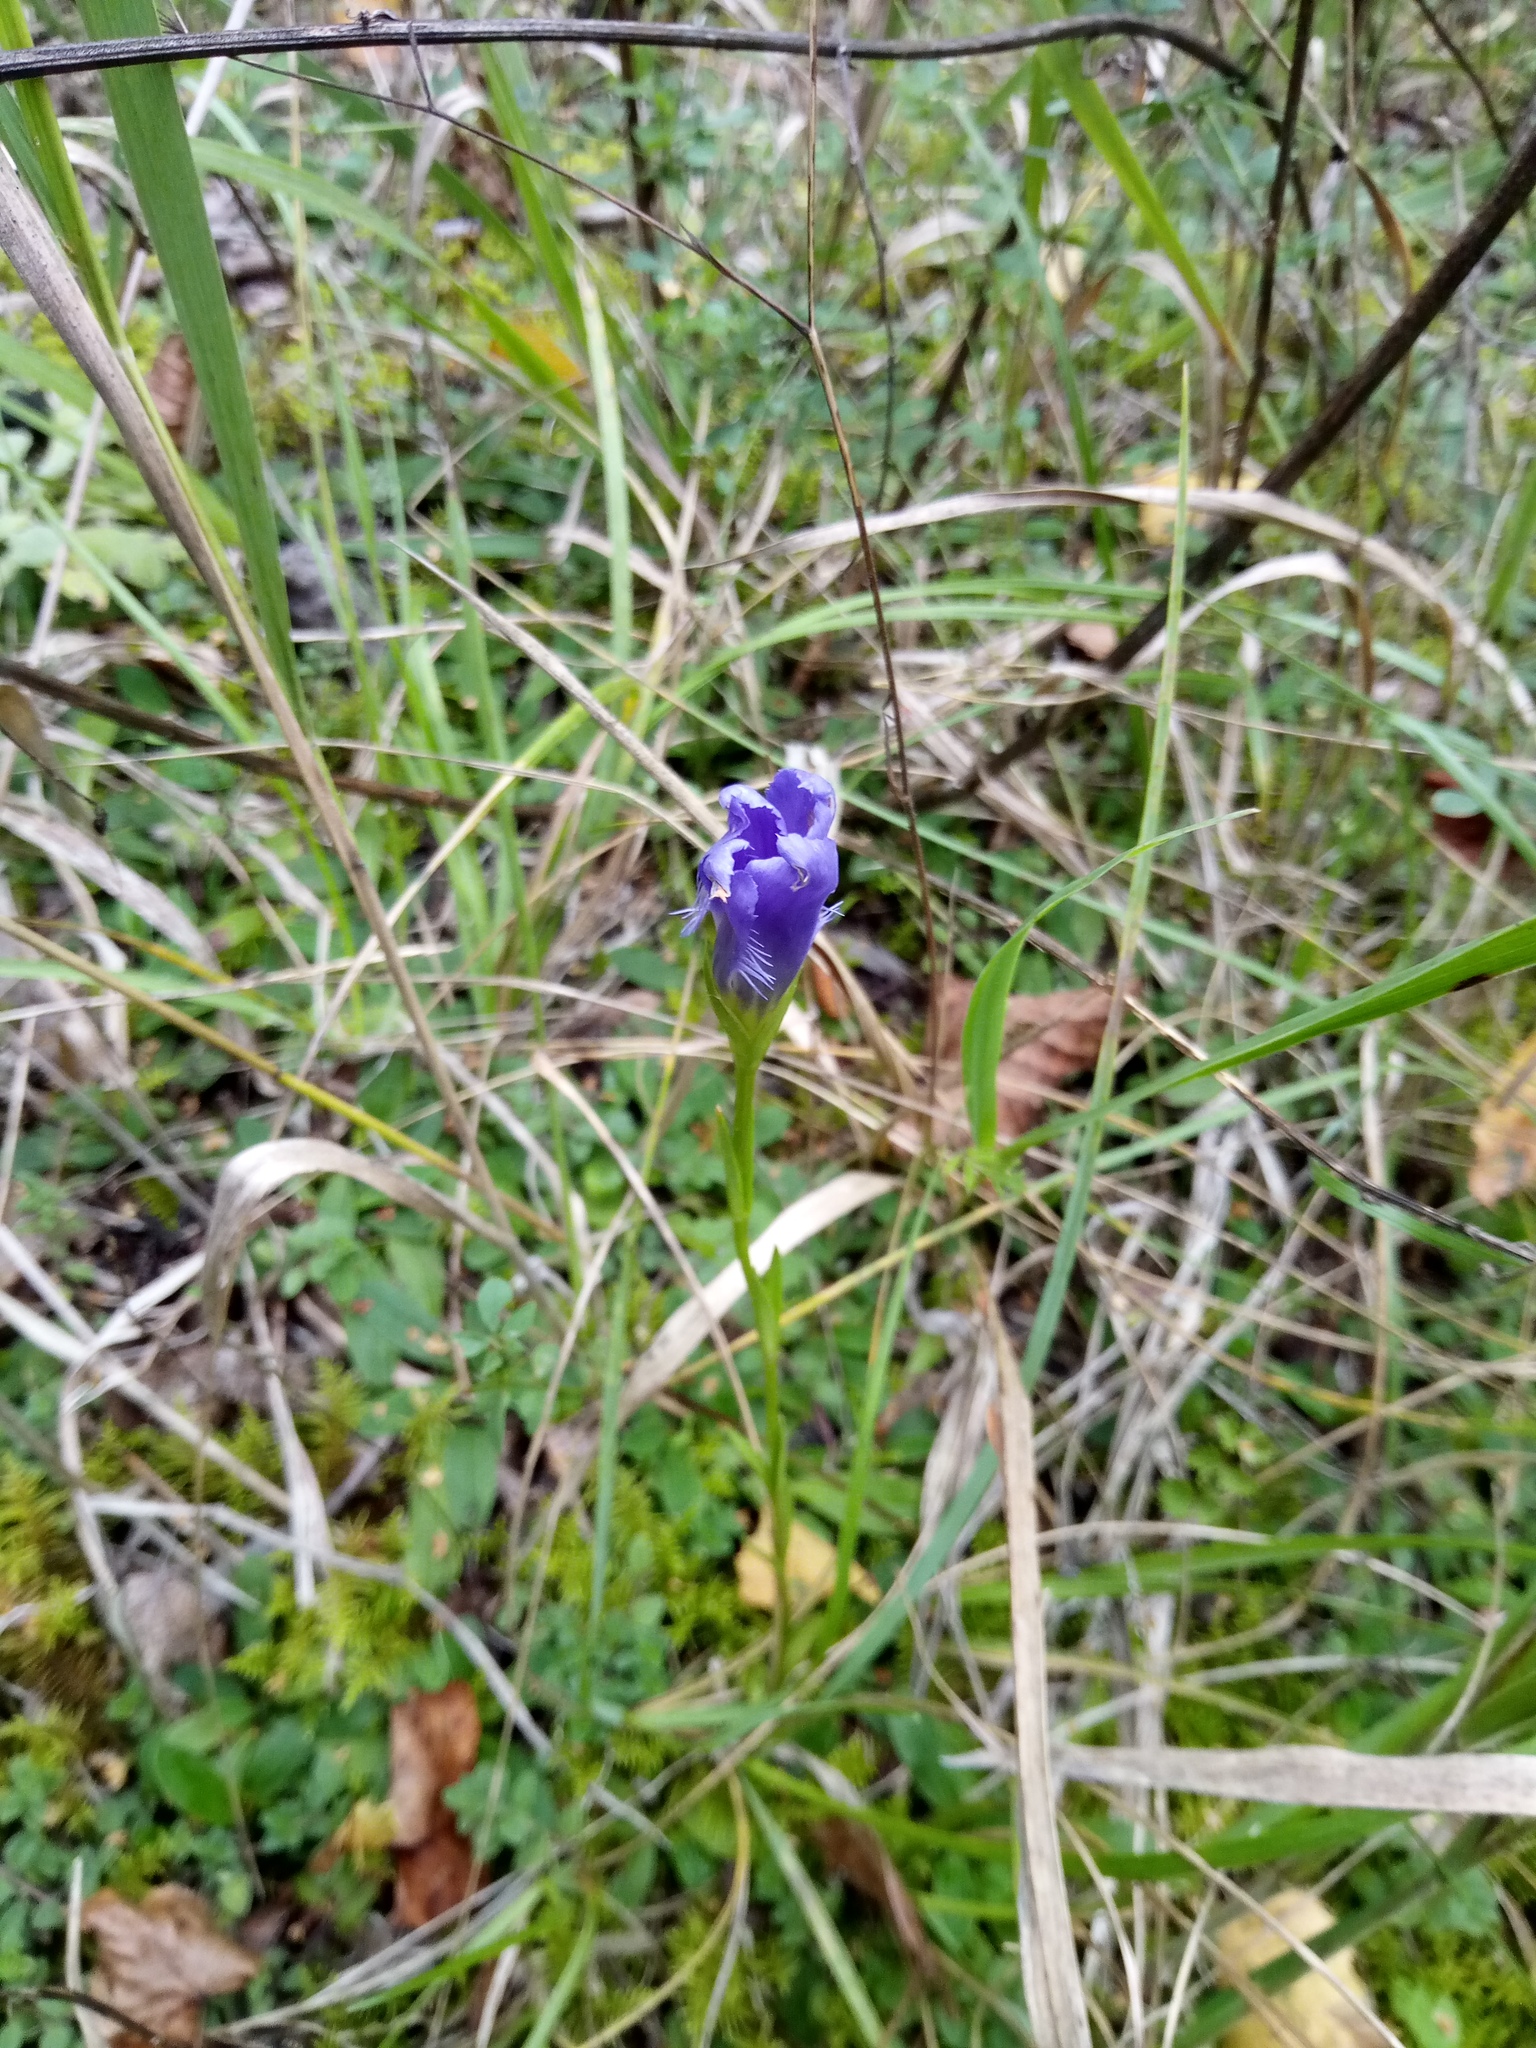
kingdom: Plantae
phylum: Tracheophyta
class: Magnoliopsida
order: Gentianales
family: Gentianaceae
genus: Gentianopsis
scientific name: Gentianopsis ciliata
